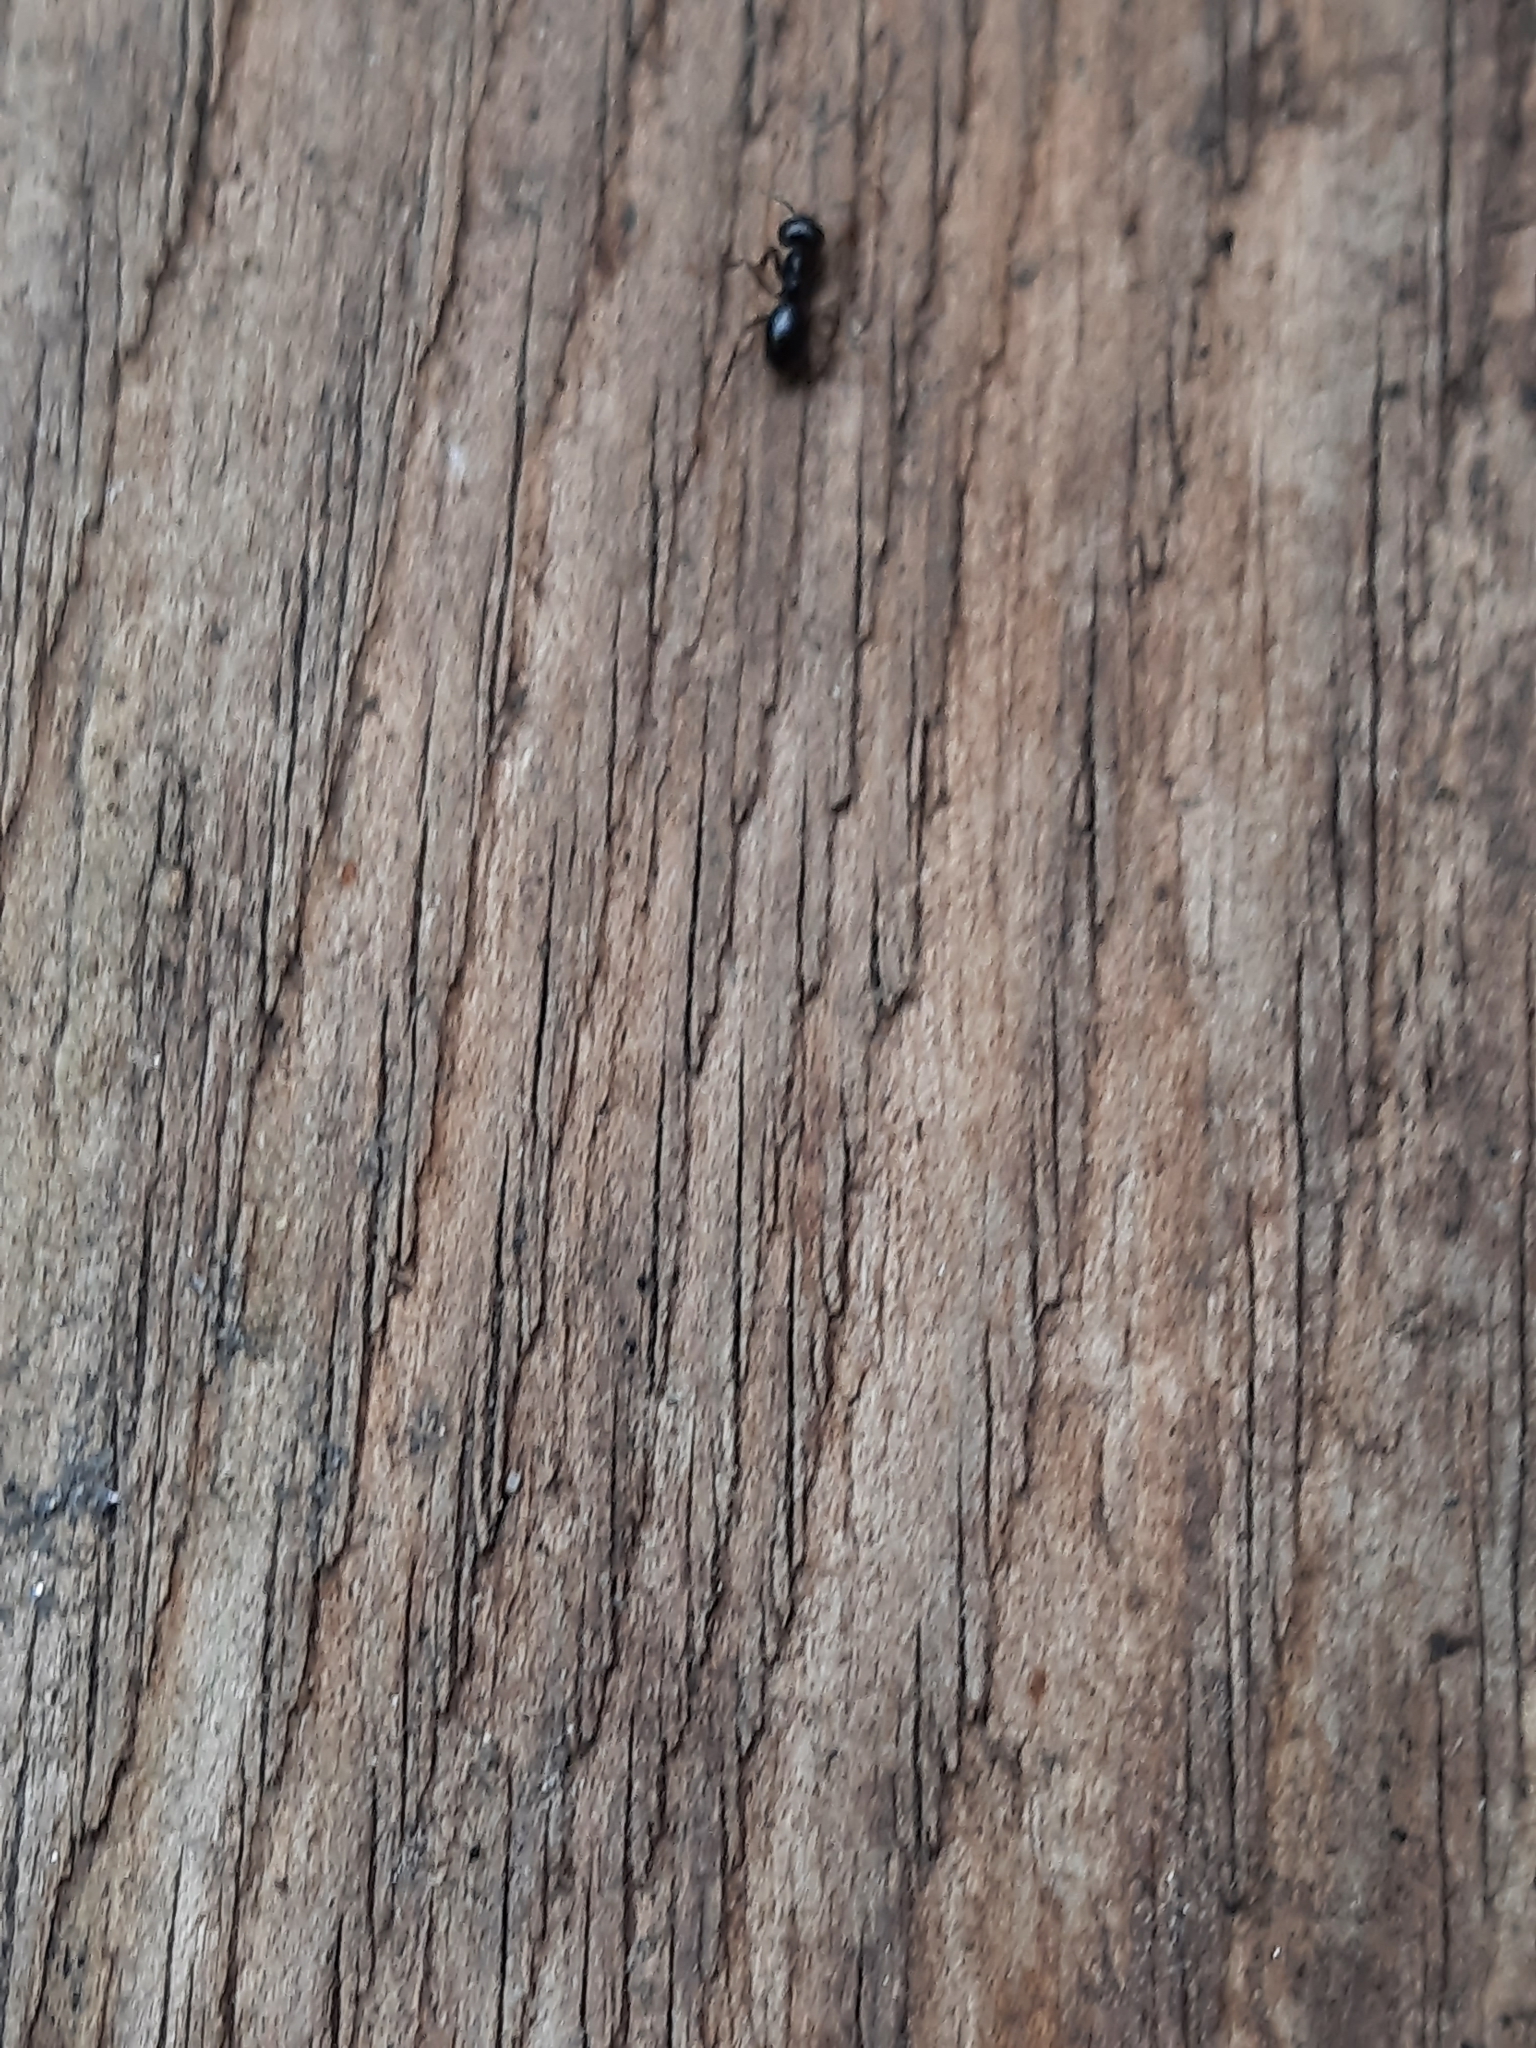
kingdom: Animalia
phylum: Arthropoda
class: Insecta
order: Hymenoptera
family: Formicidae
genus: Lasius
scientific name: Lasius fuliginosus
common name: Jet ant
